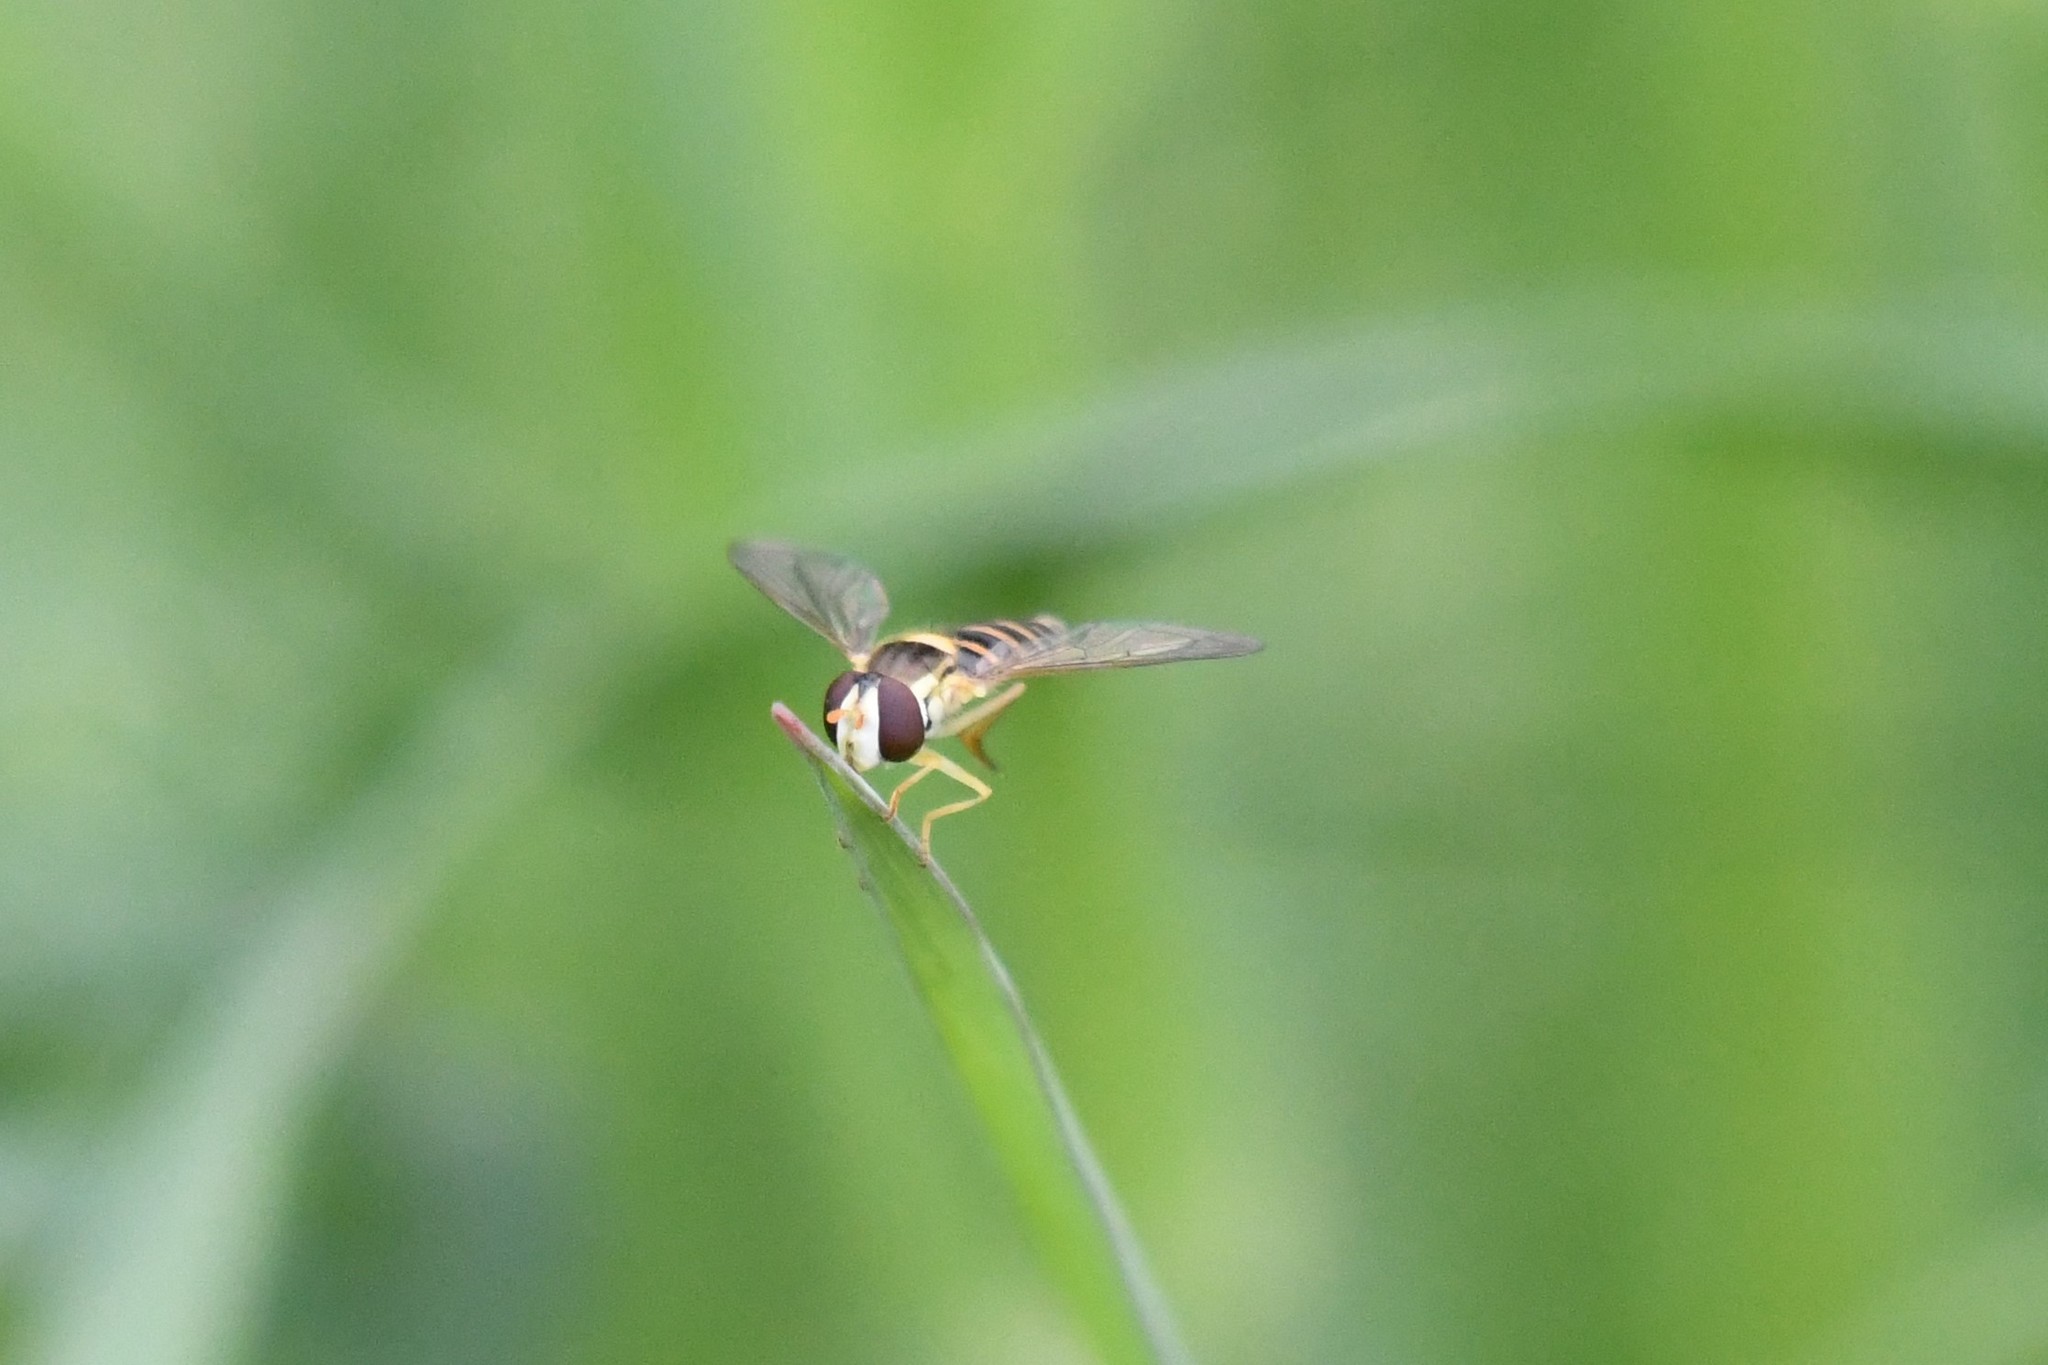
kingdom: Animalia
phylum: Arthropoda
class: Insecta
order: Diptera
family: Syrphidae
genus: Sphaerophoria
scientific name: Sphaerophoria
